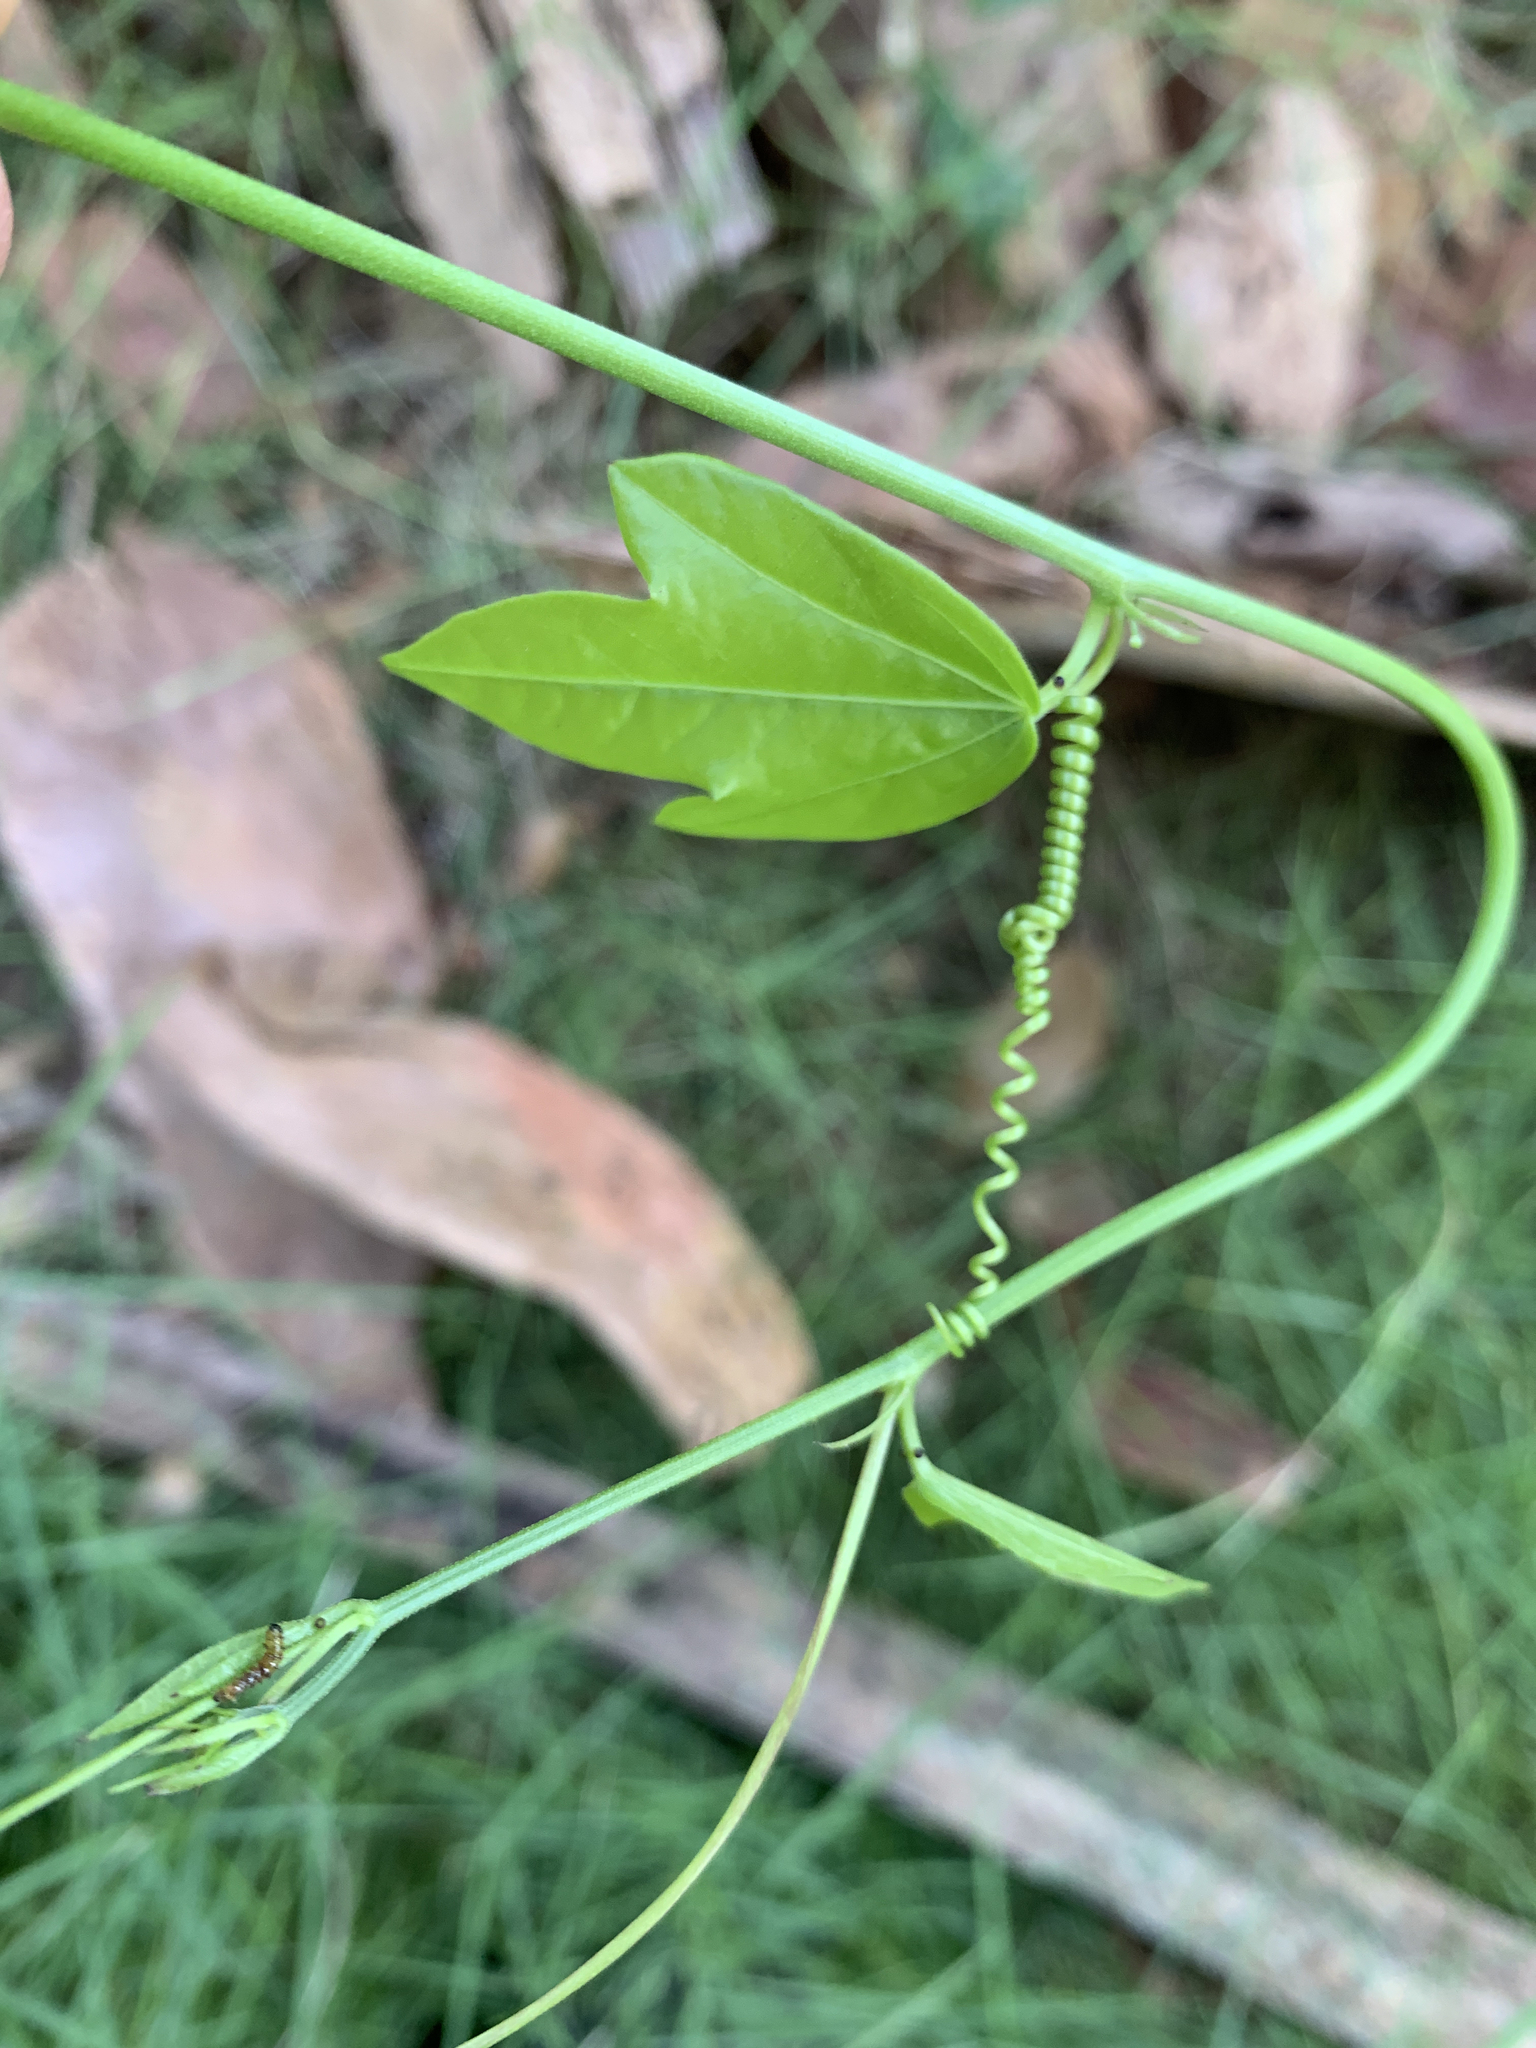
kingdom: Plantae
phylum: Tracheophyta
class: Magnoliopsida
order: Malpighiales
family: Passifloraceae
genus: Passiflora
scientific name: Passiflora pallida
